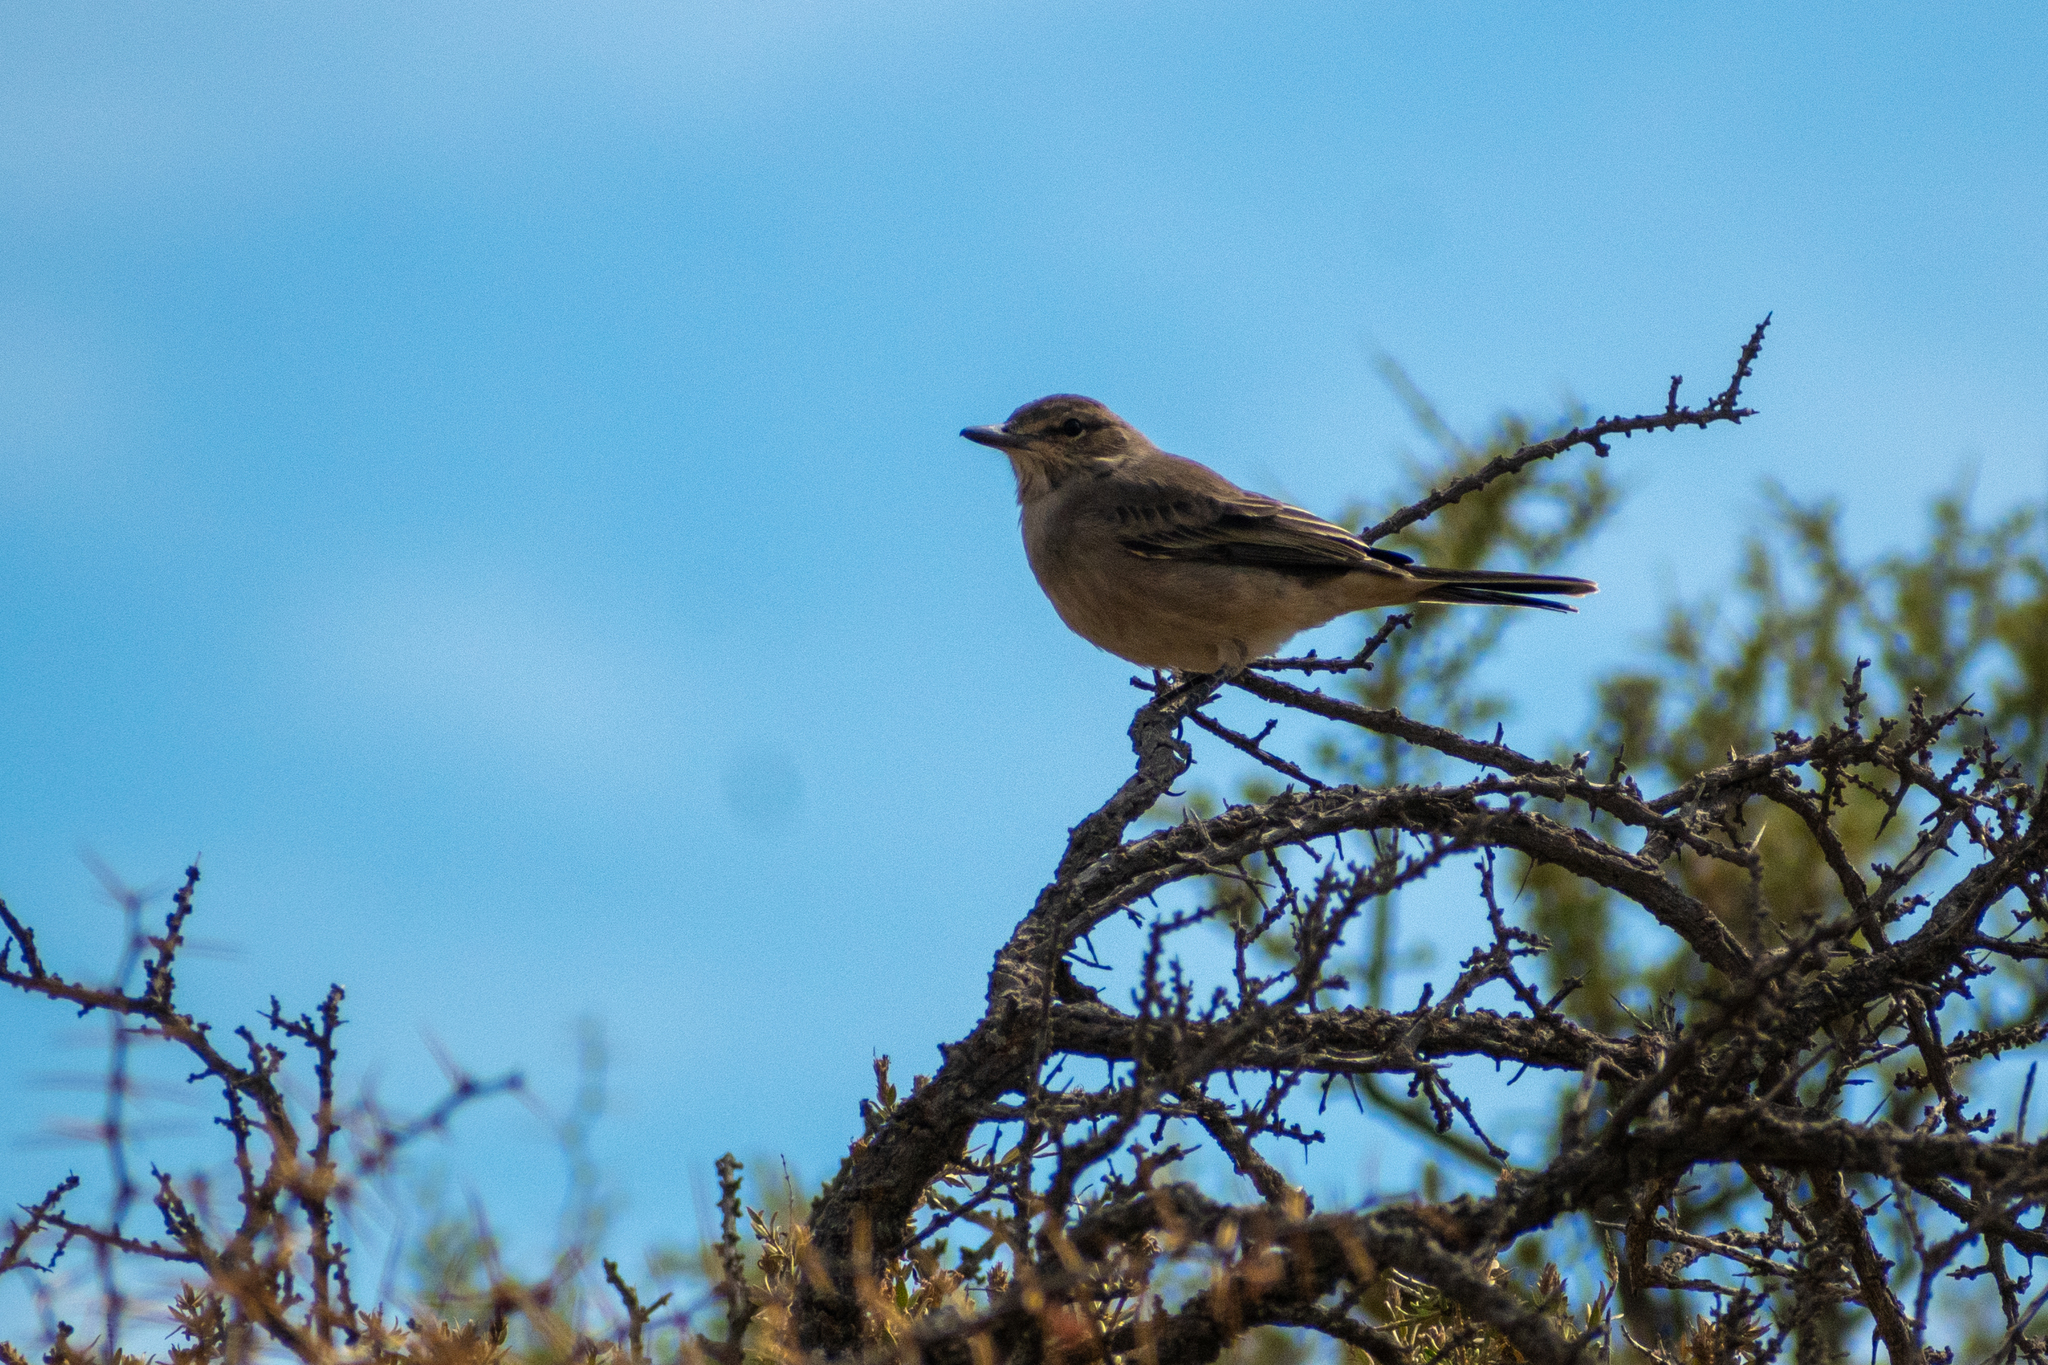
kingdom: Animalia
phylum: Chordata
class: Aves
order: Passeriformes
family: Tyrannidae
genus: Agriornis
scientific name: Agriornis micropterus
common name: Grey-bellied shrike-tyrant
